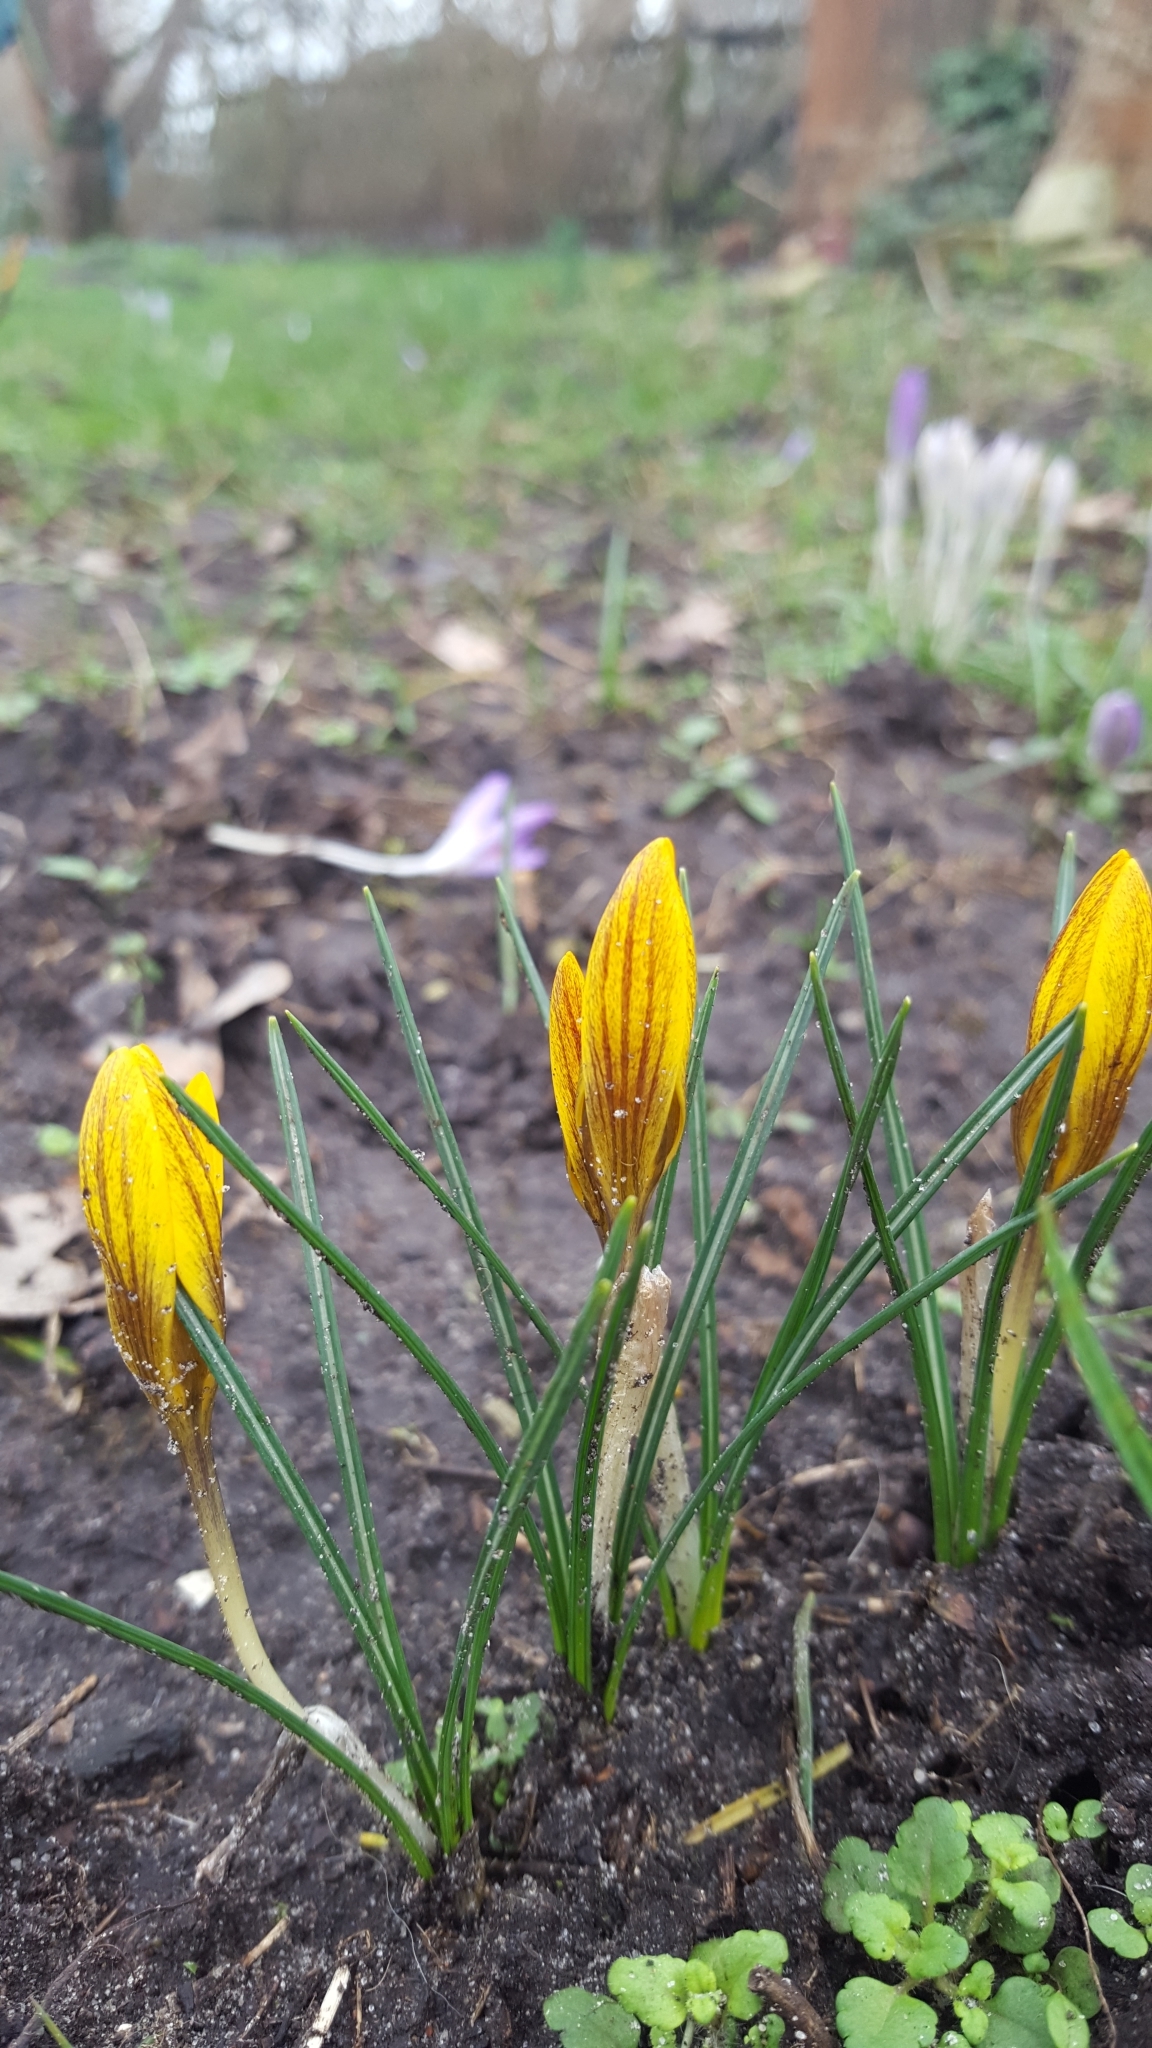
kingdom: Plantae
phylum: Tracheophyta
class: Liliopsida
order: Asparagales
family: Iridaceae
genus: Crocus
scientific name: Crocus chrysanthus
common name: Golden crocus
